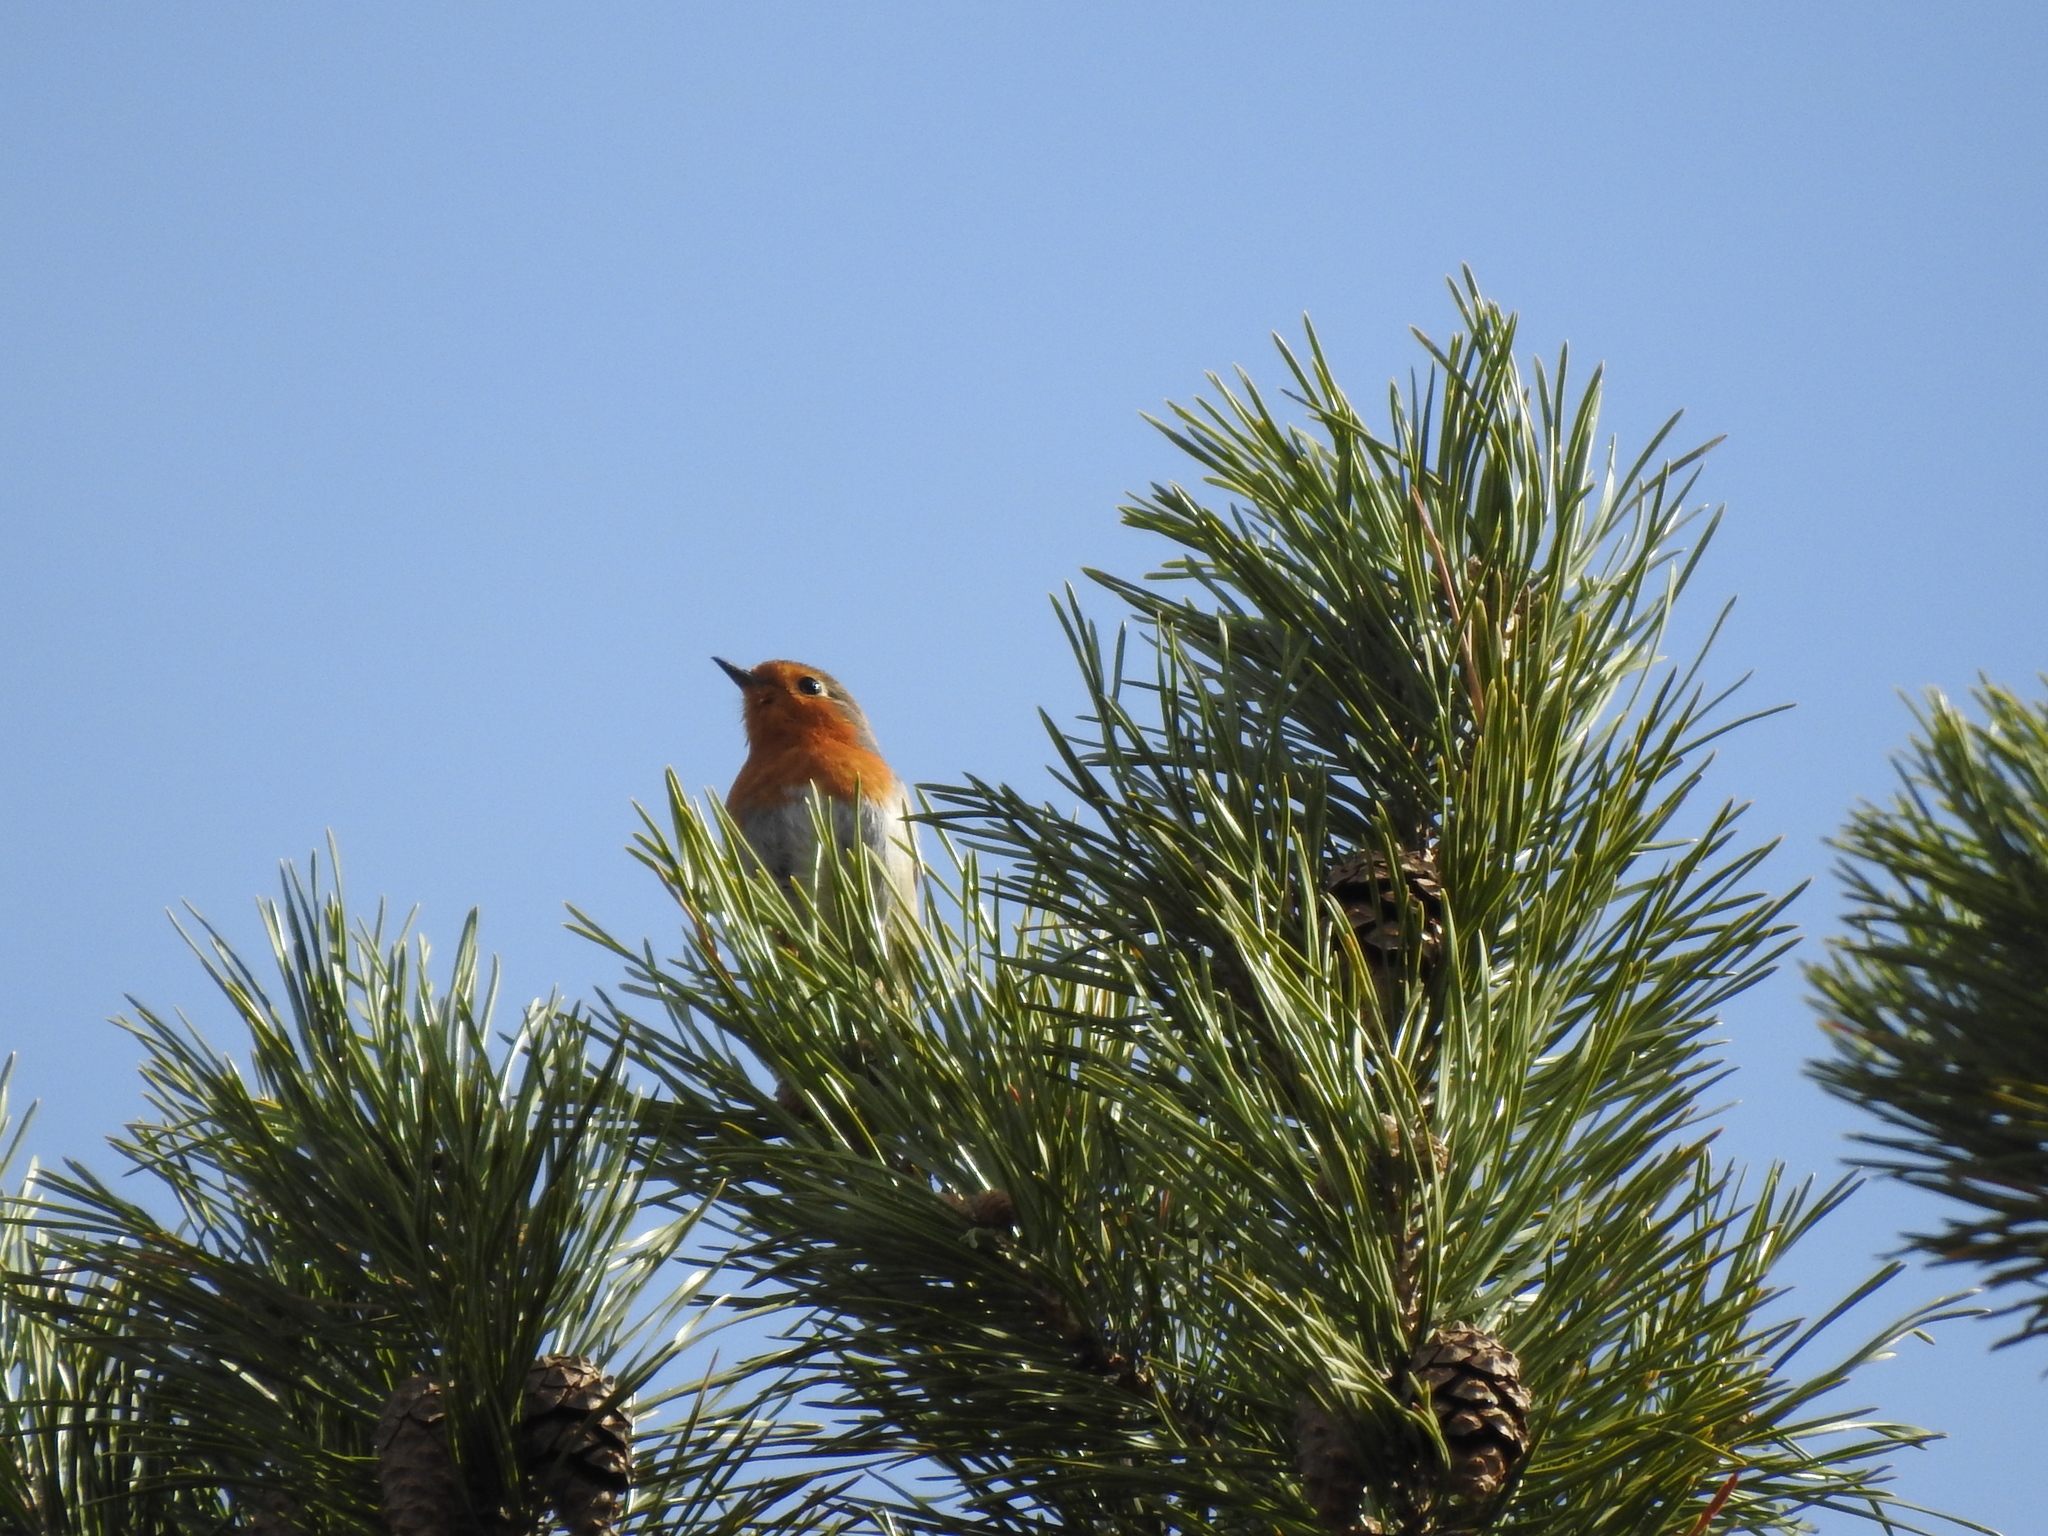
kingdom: Animalia
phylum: Chordata
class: Aves
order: Passeriformes
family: Muscicapidae
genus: Erithacus
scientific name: Erithacus rubecula
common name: European robin
